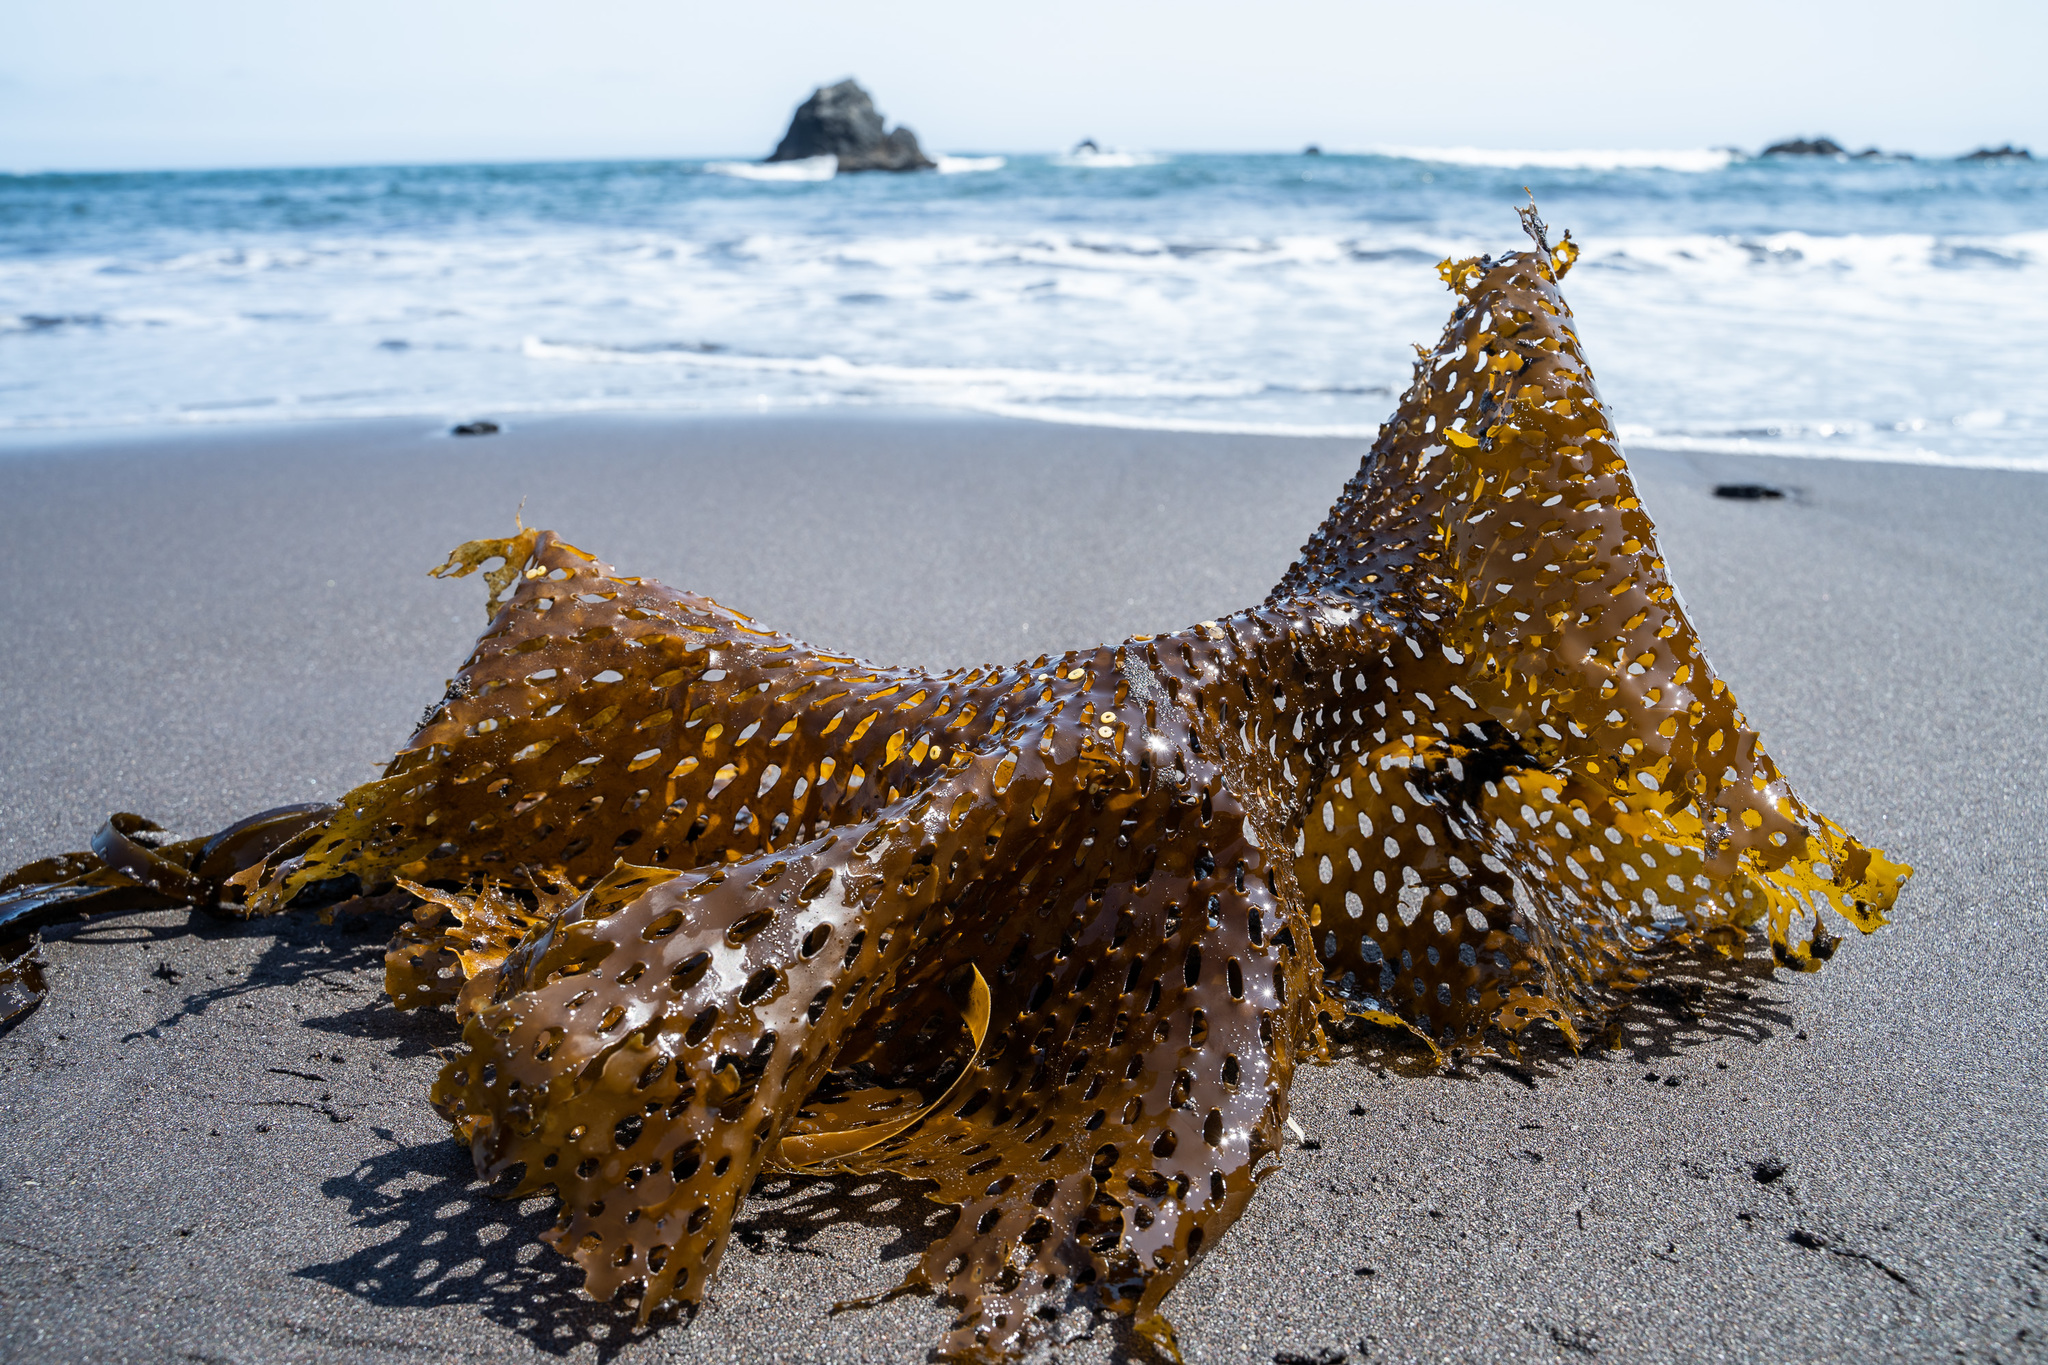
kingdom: Chromista
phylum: Ochrophyta
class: Phaeophyceae
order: Laminariales
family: Costariaceae
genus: Thalassiophyllum
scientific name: Thalassiophyllum
